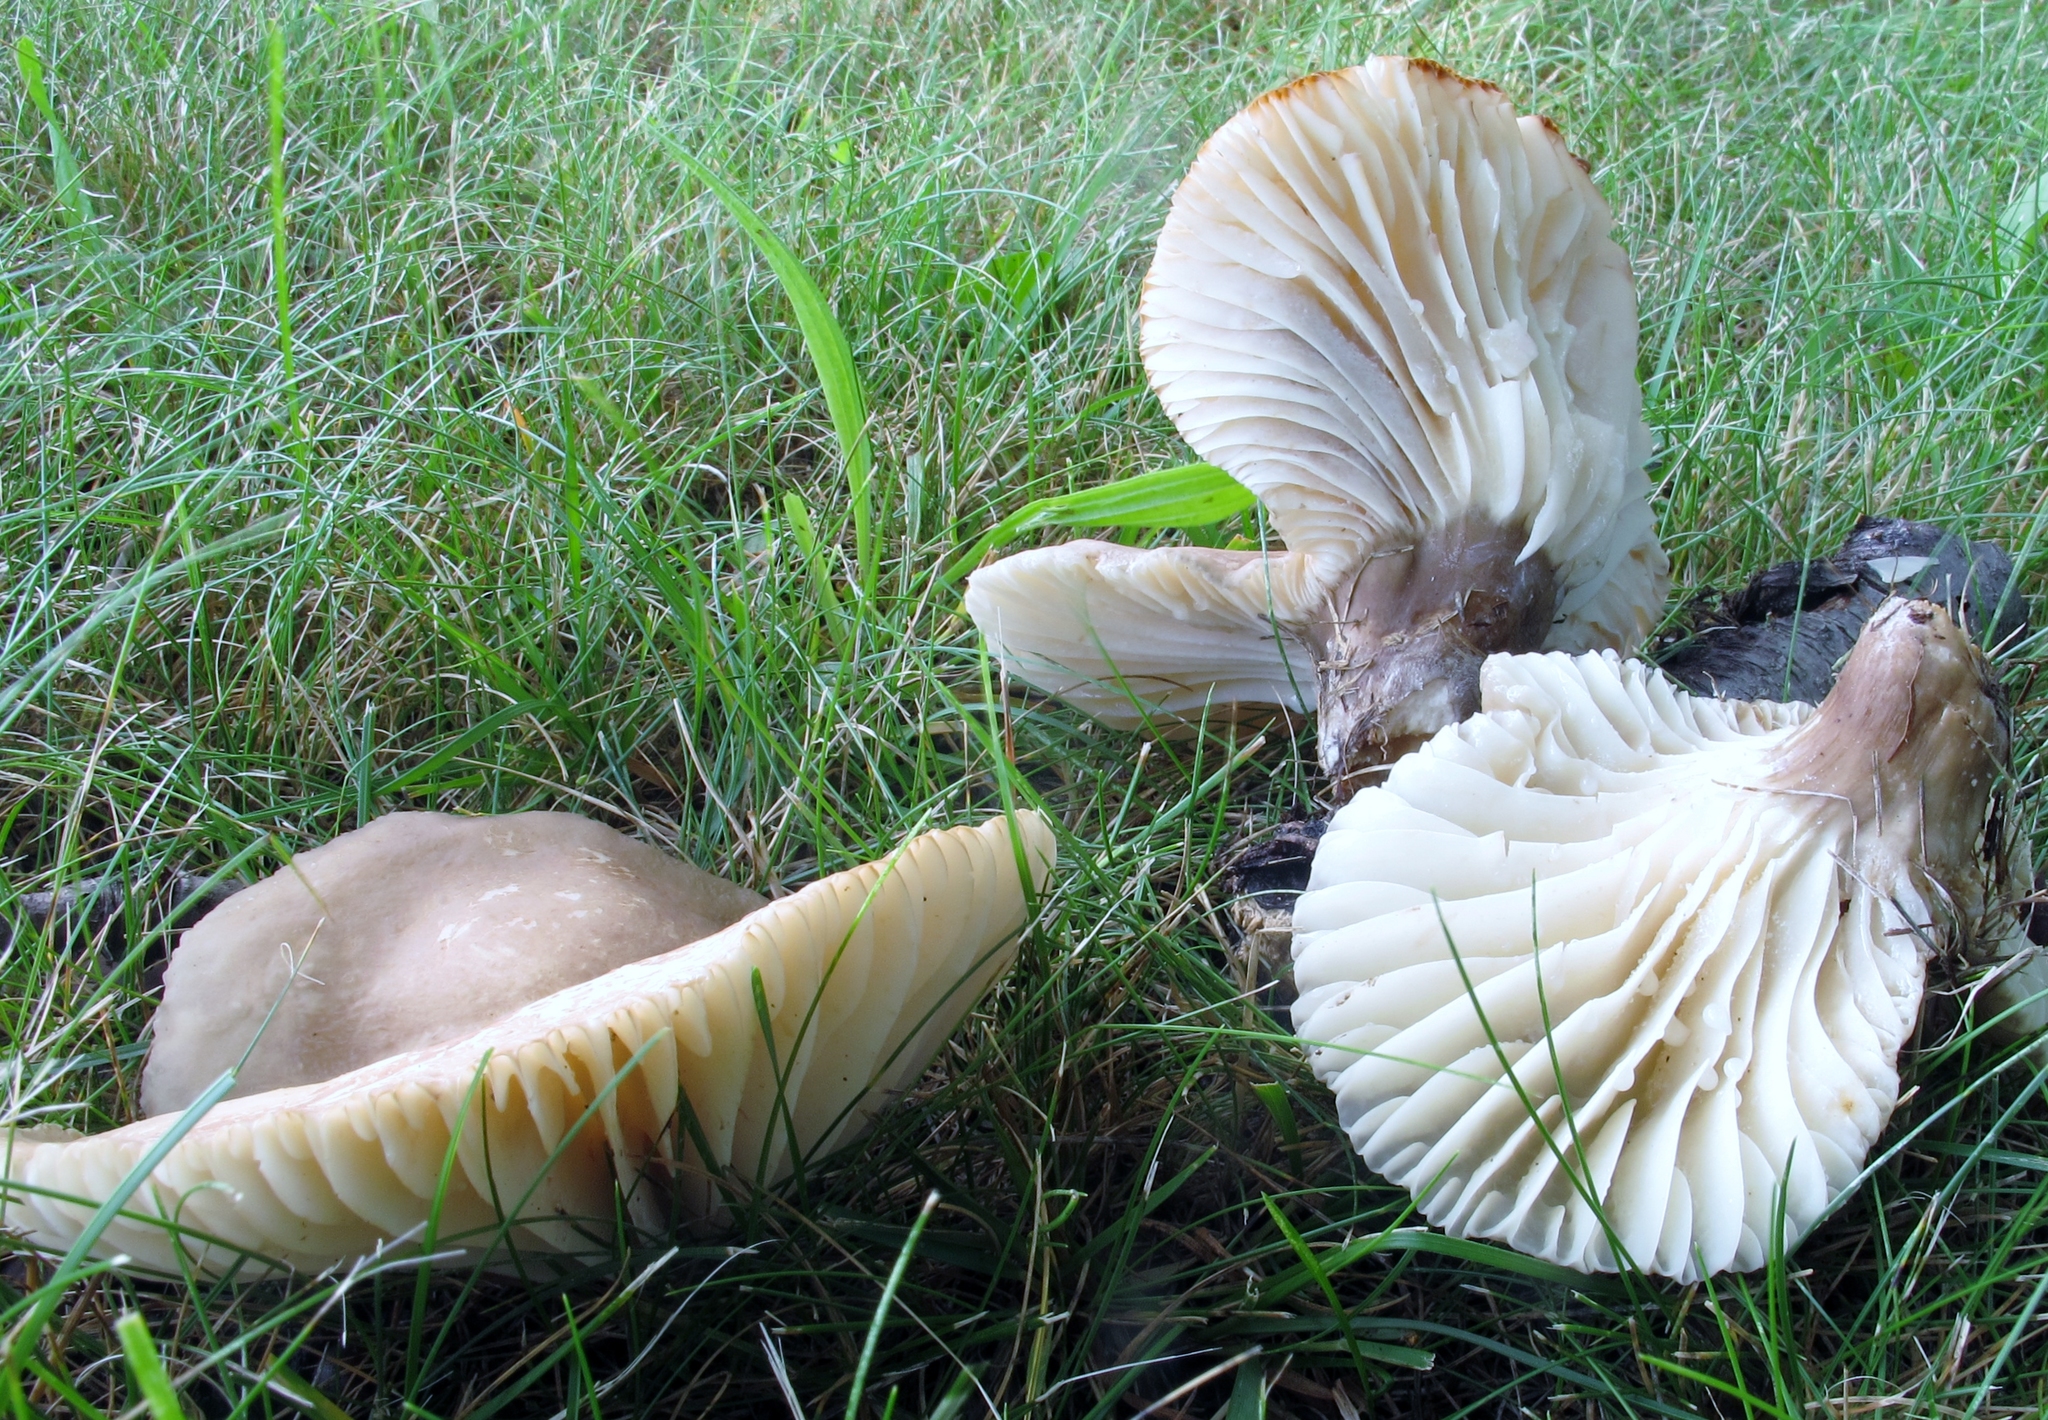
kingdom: Fungi
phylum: Basidiomycota
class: Agaricomycetes
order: Russulales
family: Russulaceae
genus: Lactarius
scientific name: Lactarius gerardii
